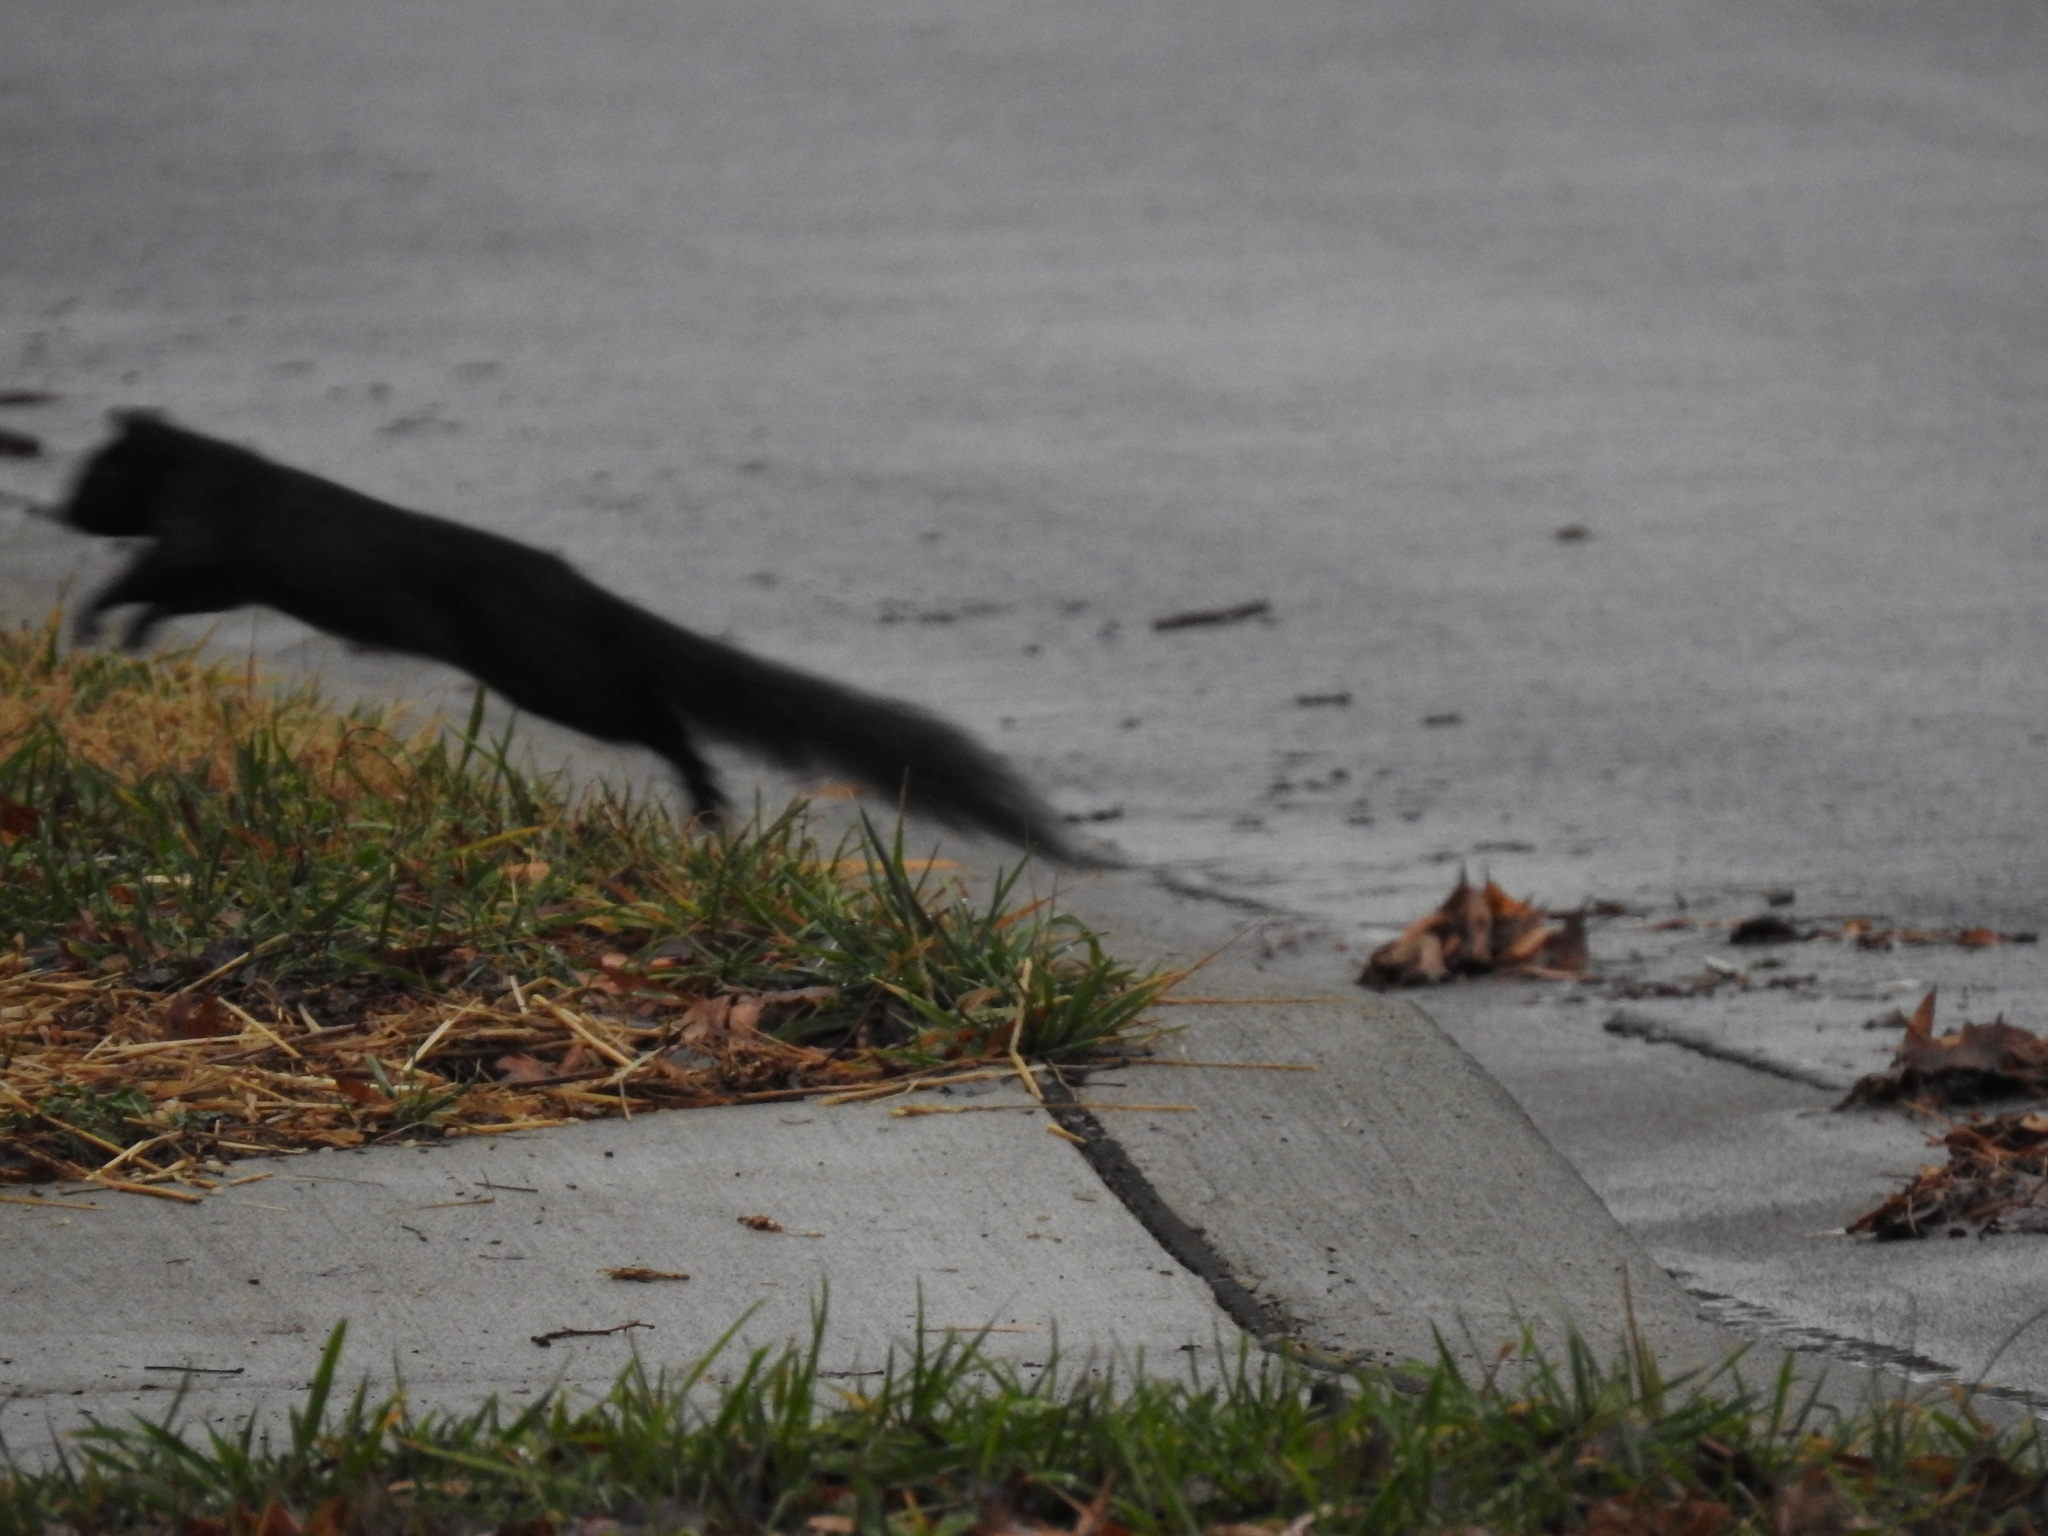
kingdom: Animalia
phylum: Chordata
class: Mammalia
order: Rodentia
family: Sciuridae
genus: Sciurus
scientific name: Sciurus carolinensis
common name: Eastern gray squirrel
